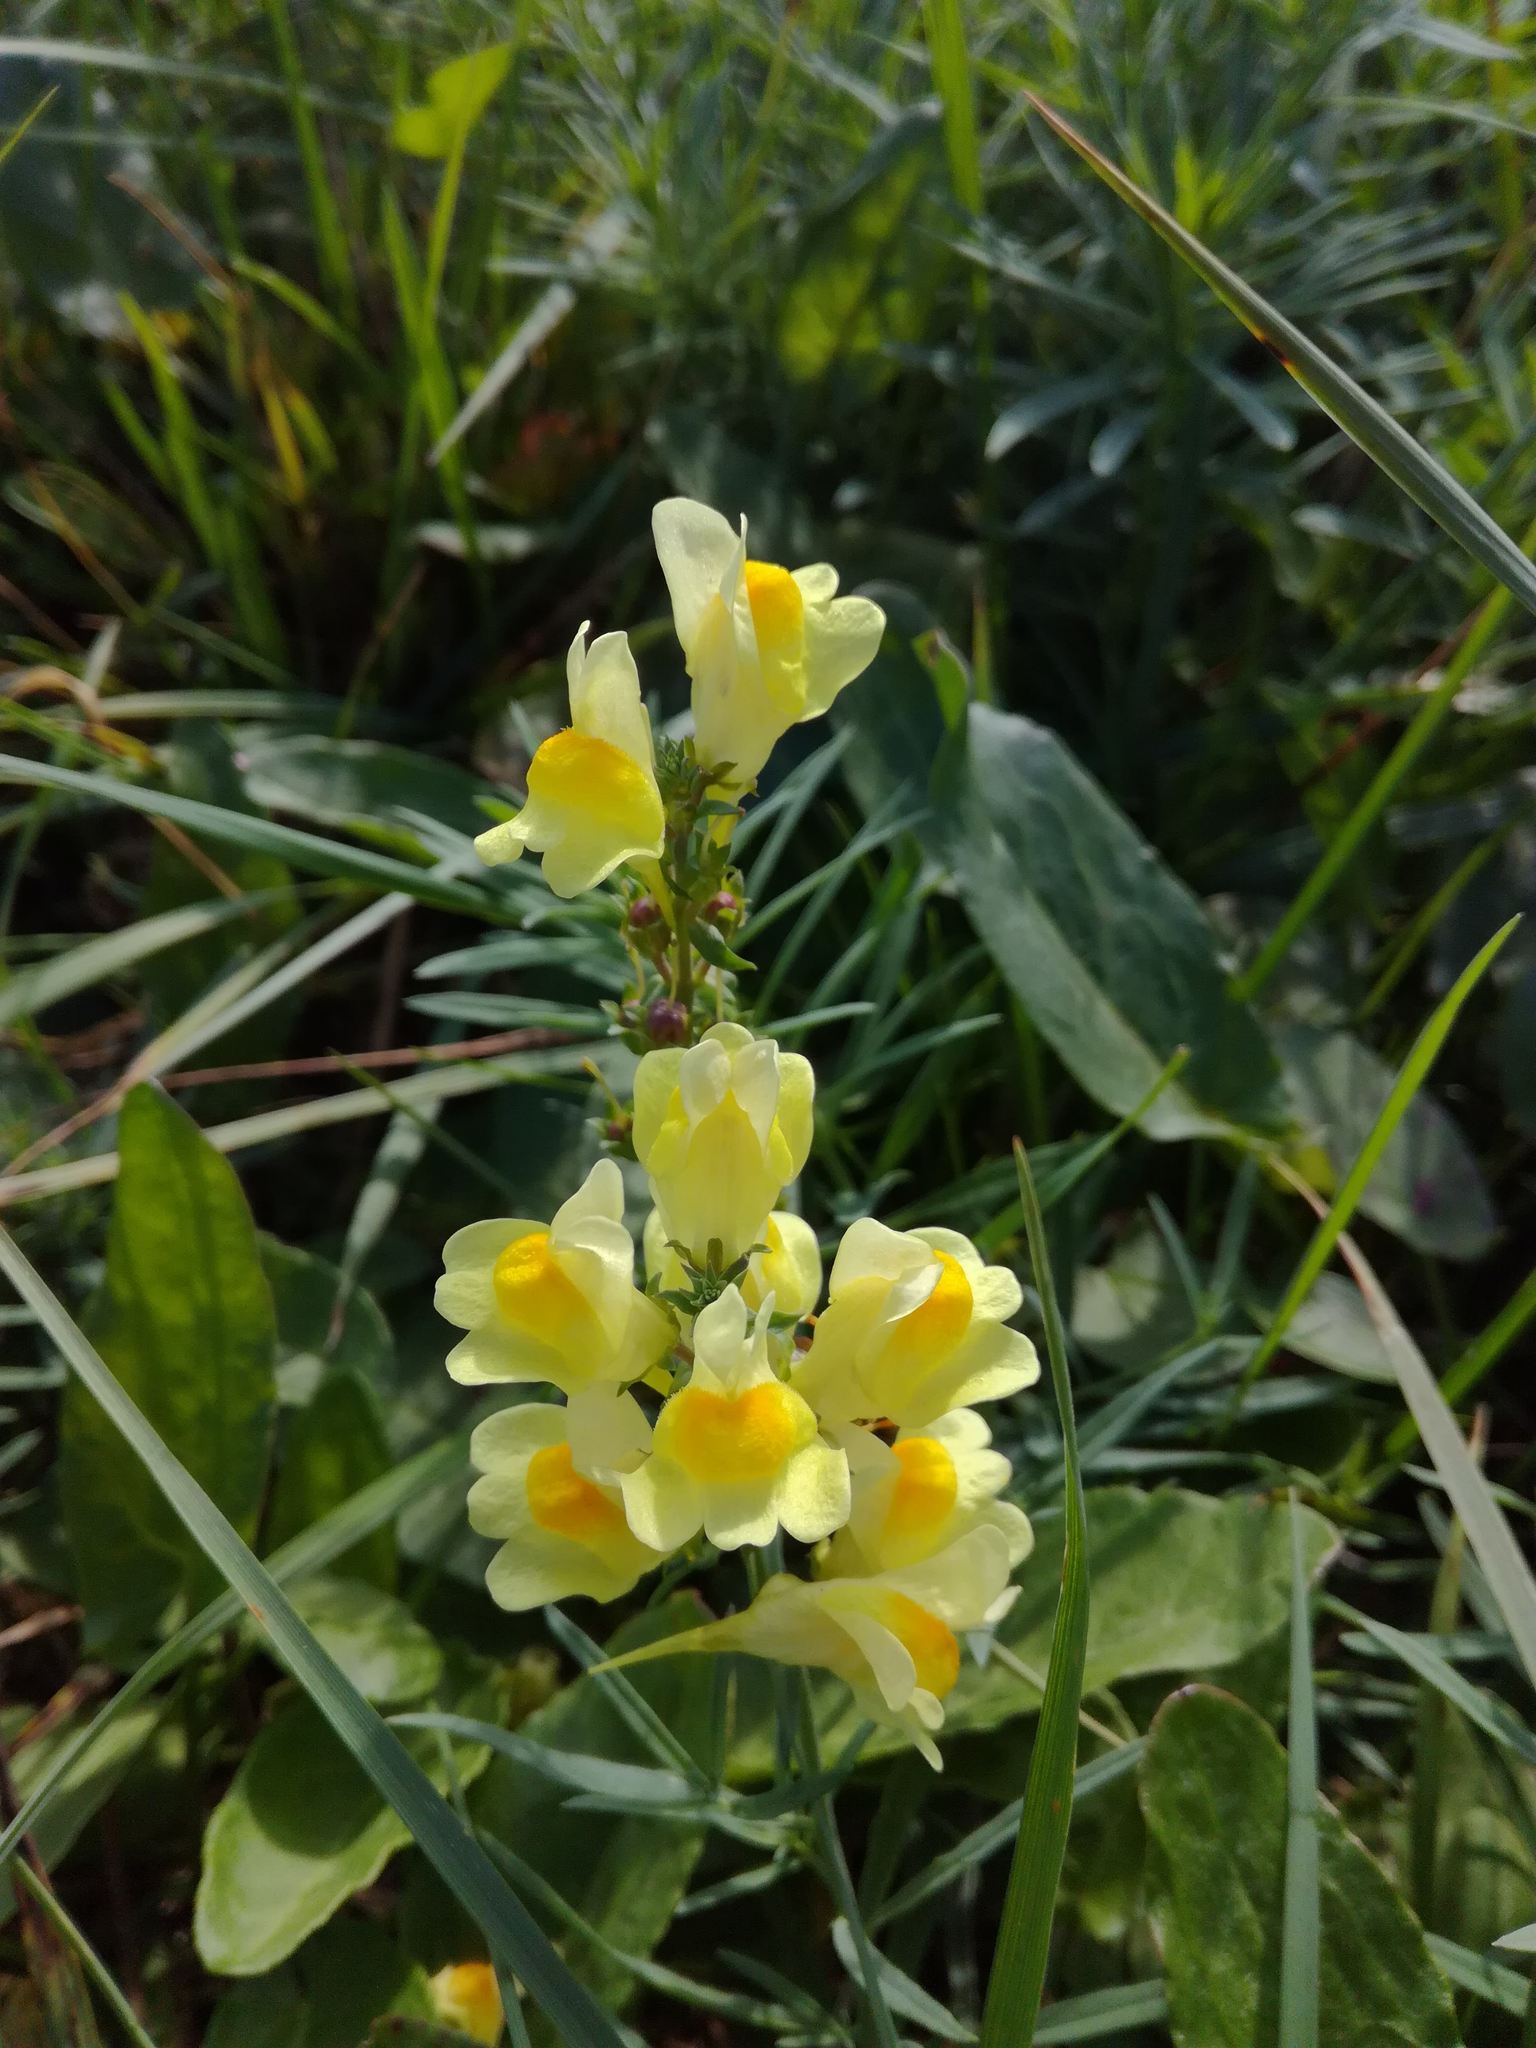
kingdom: Plantae
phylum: Tracheophyta
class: Magnoliopsida
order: Lamiales
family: Plantaginaceae
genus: Linaria
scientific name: Linaria vulgaris
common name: Butter and eggs
